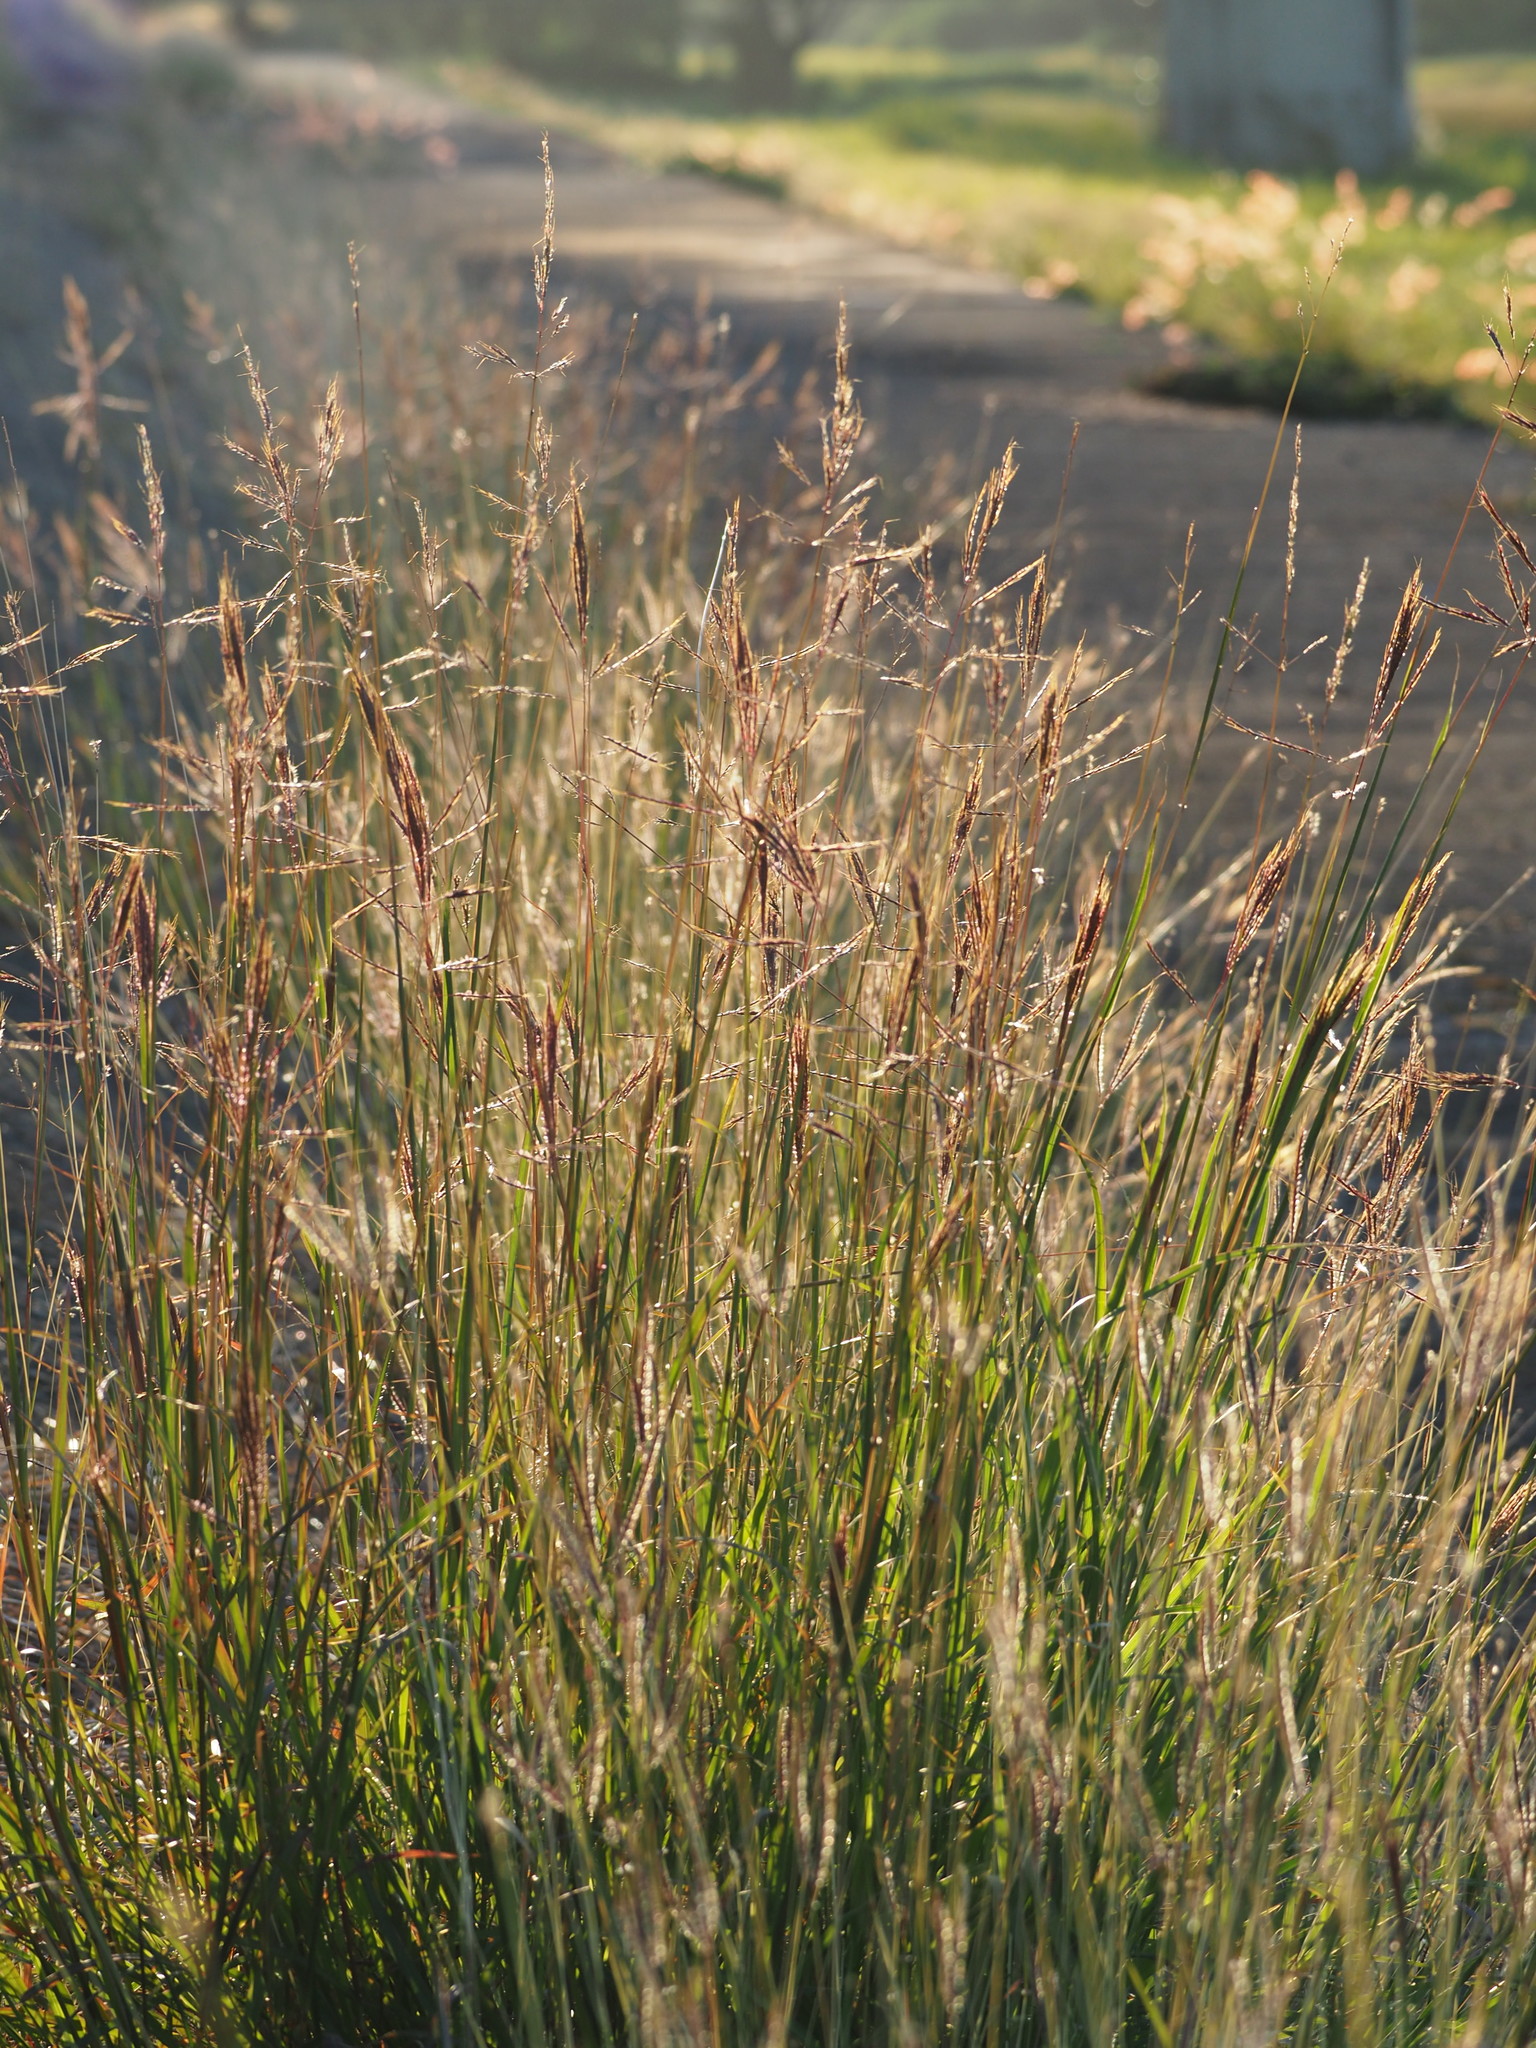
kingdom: Plantae
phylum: Tracheophyta
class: Liliopsida
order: Poales
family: Poaceae
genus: Bothriochloa
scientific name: Bothriochloa glabra
